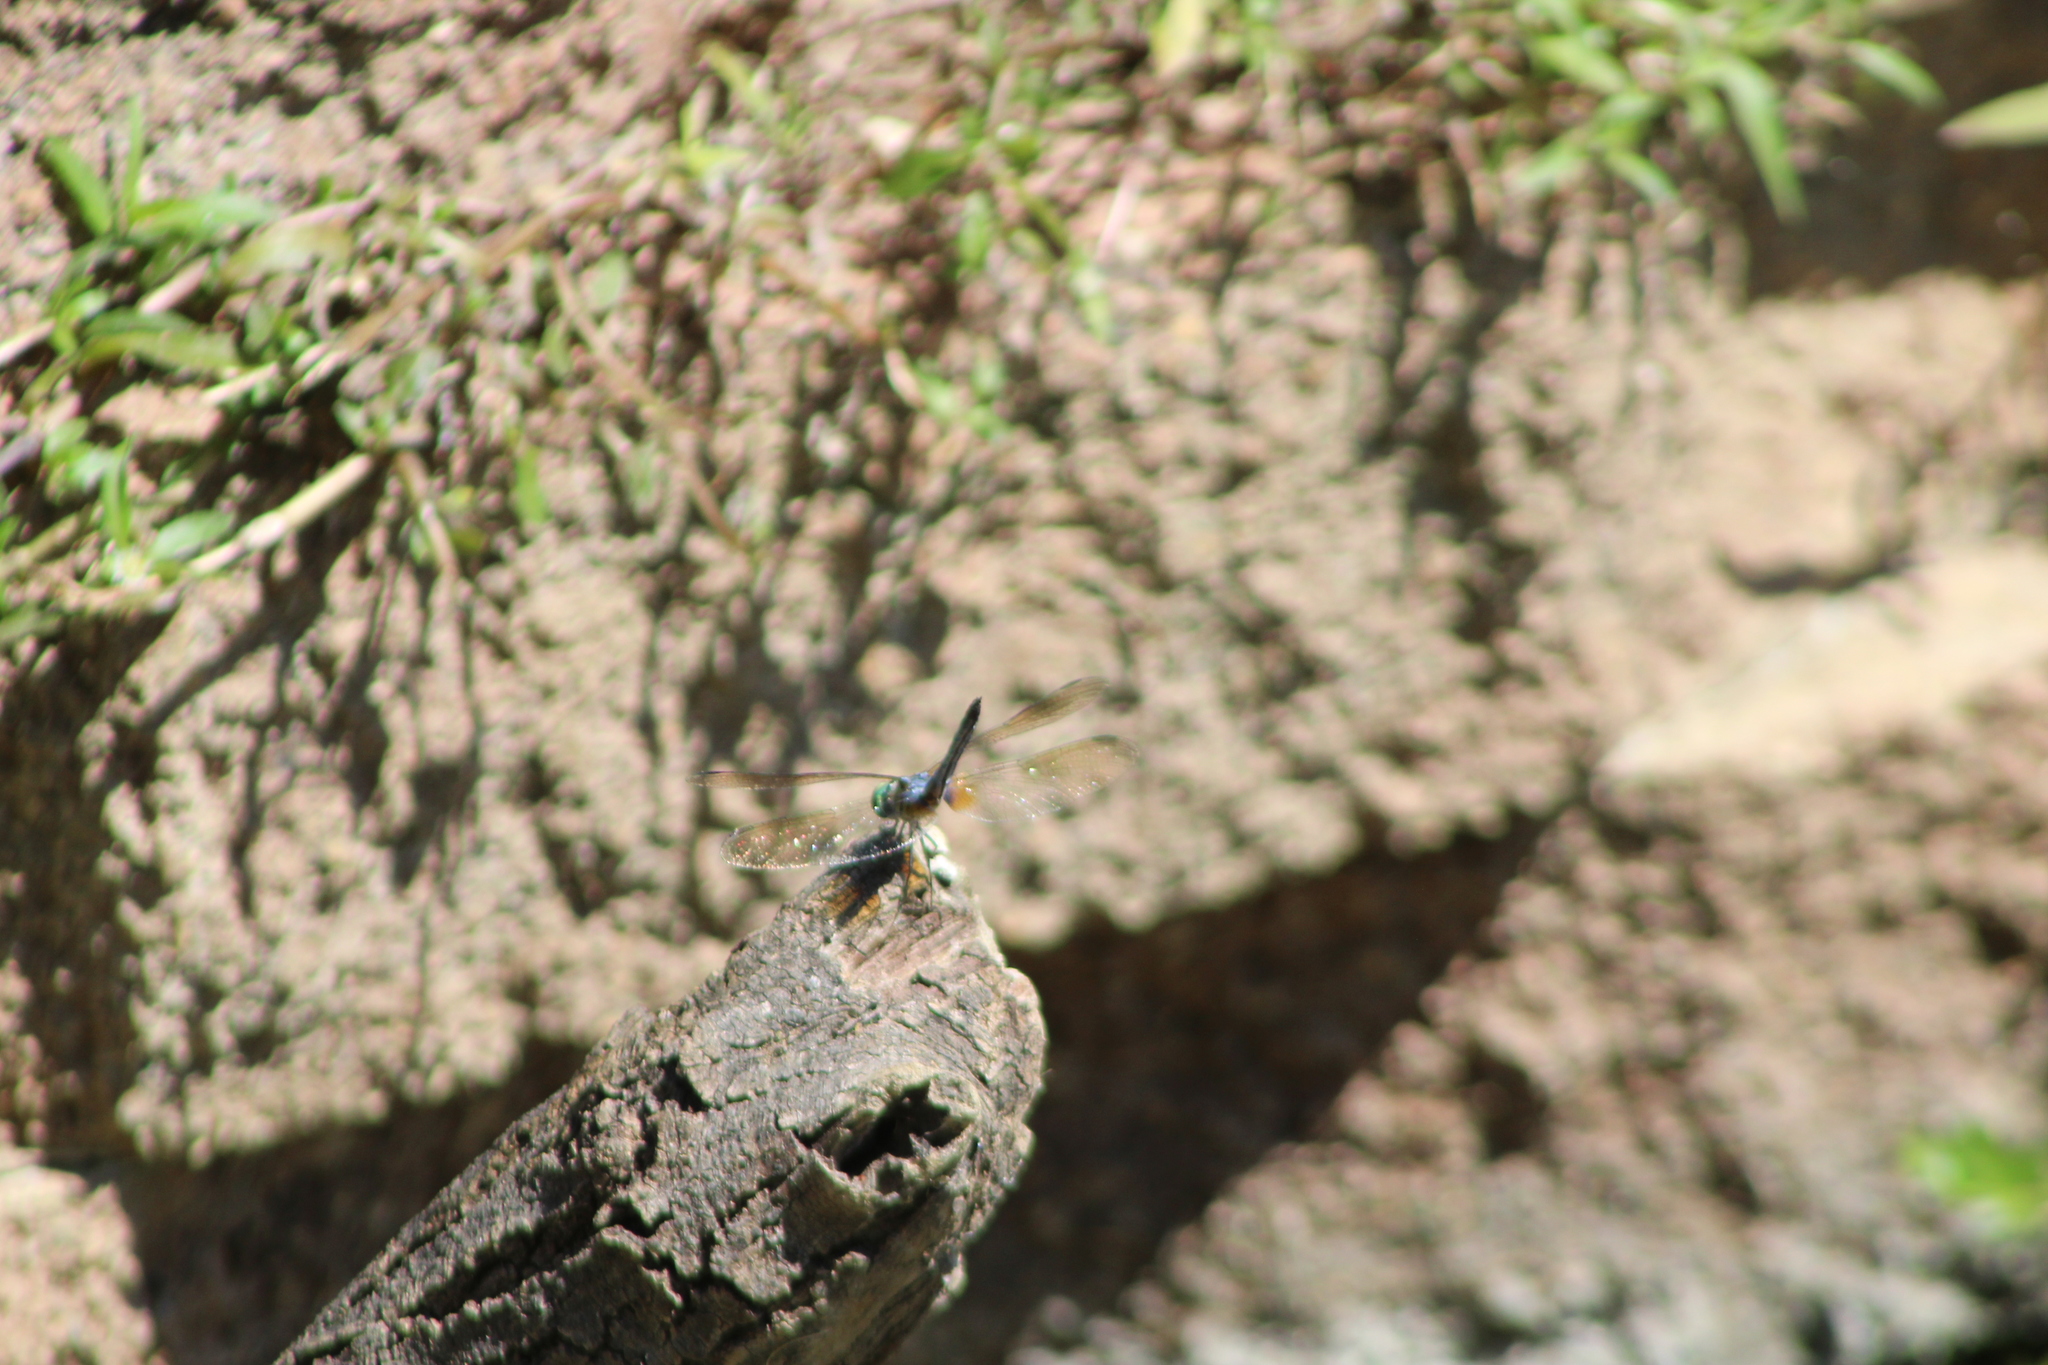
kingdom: Animalia
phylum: Arthropoda
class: Insecta
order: Odonata
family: Libellulidae
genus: Pachydiplax
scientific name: Pachydiplax longipennis
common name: Blue dasher
